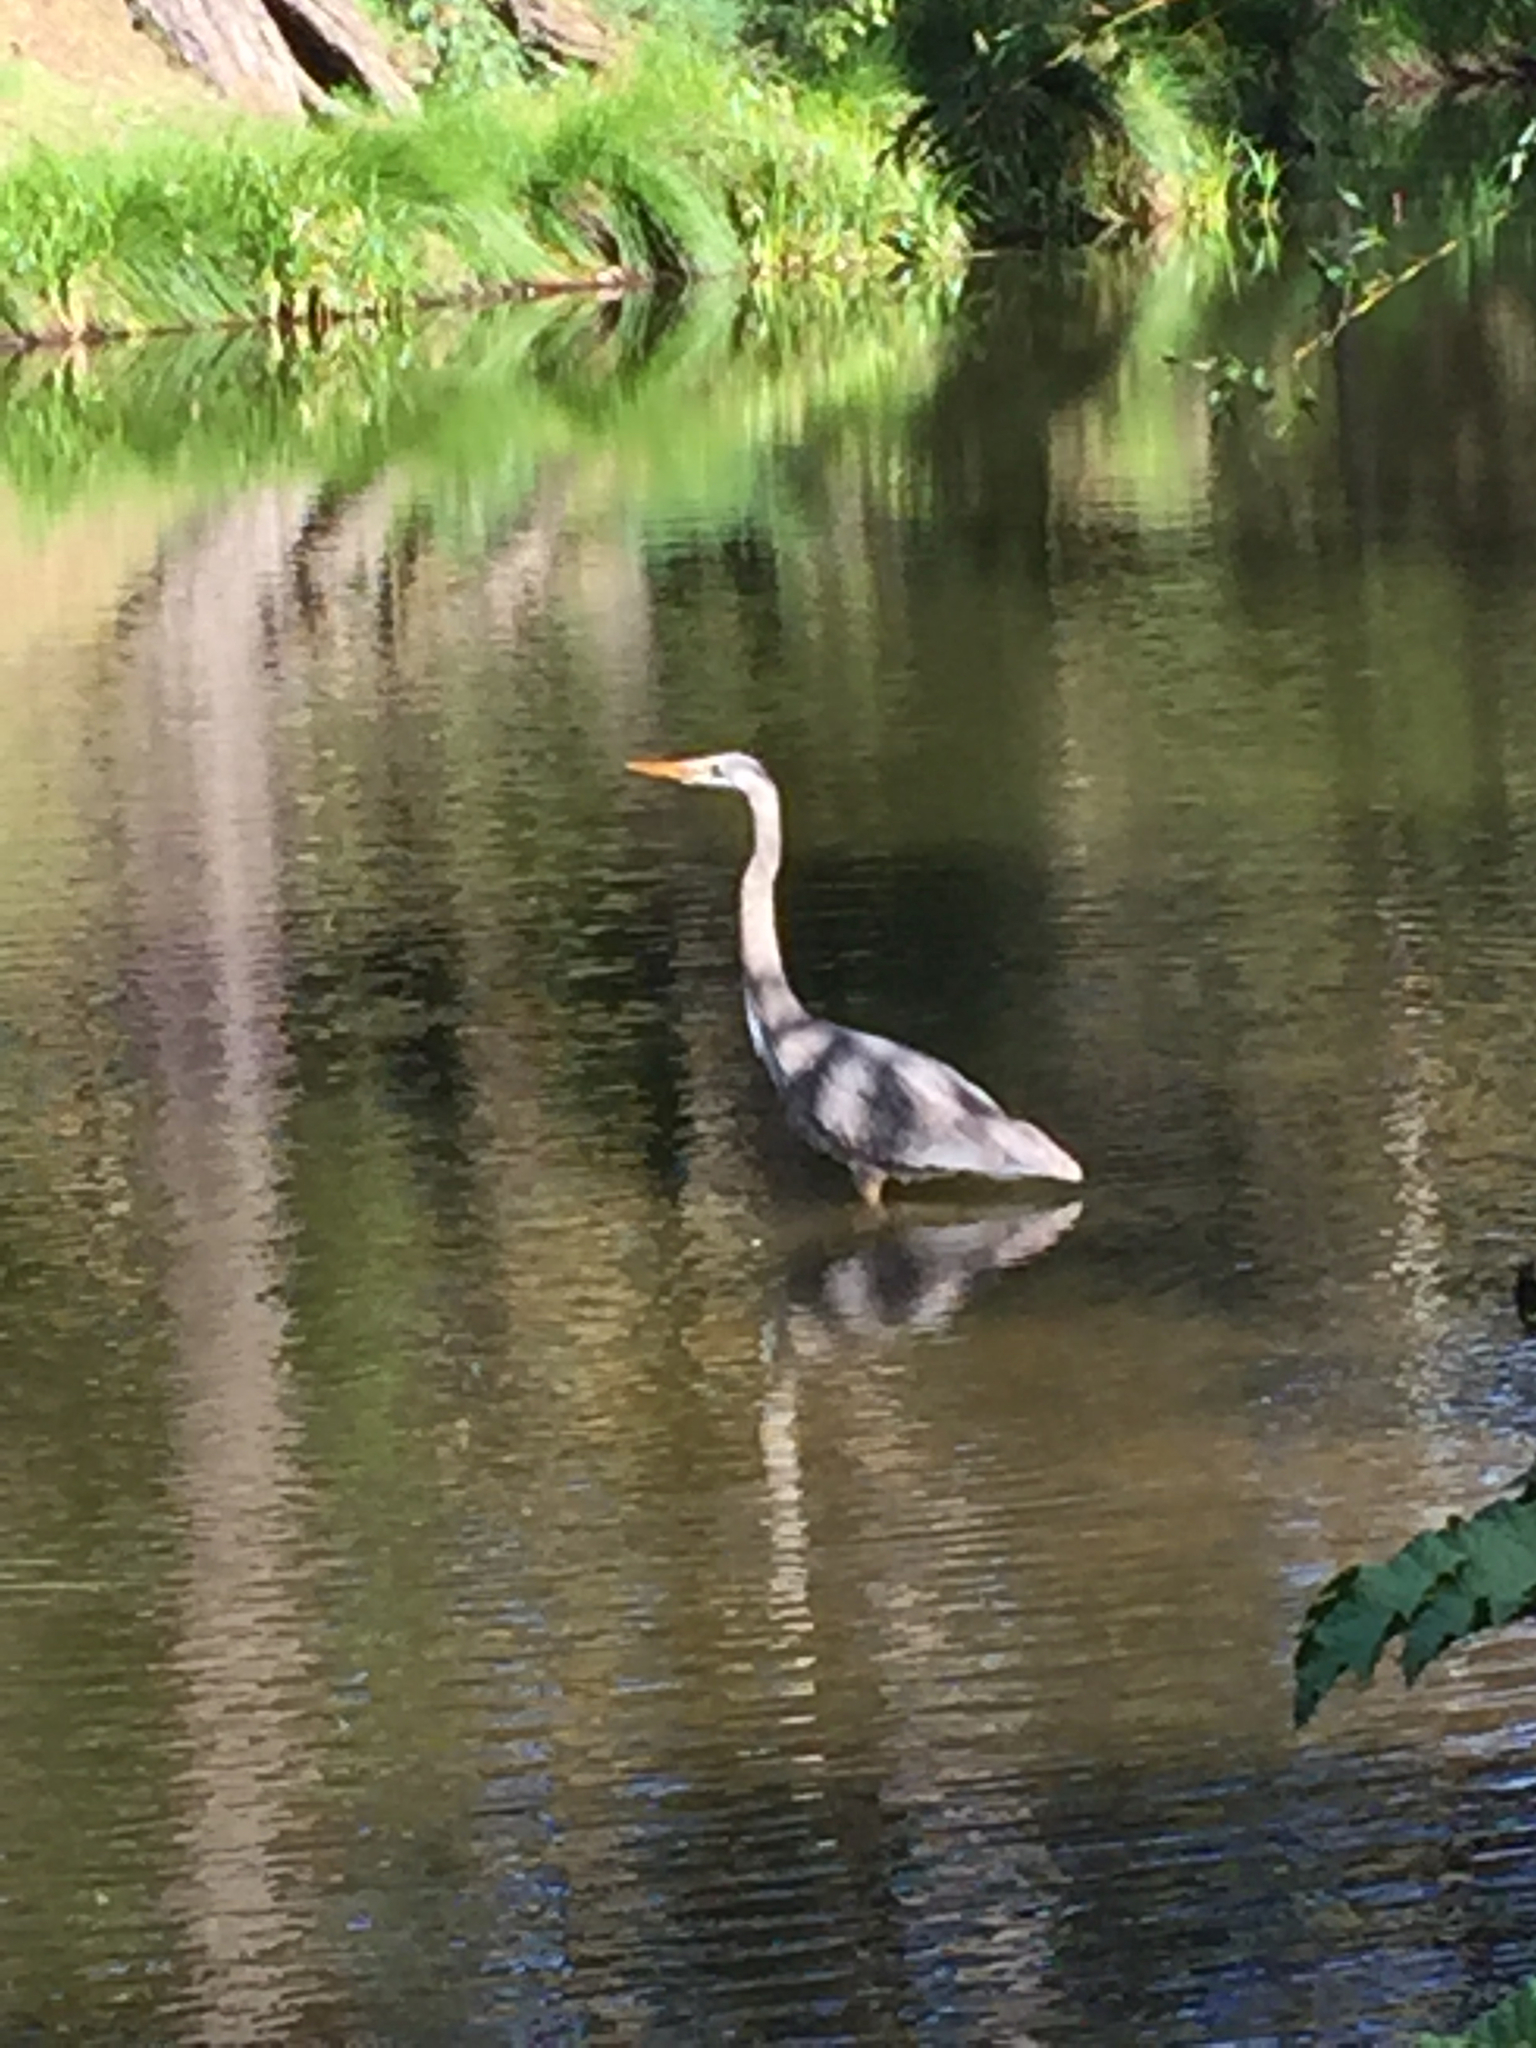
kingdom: Animalia
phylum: Chordata
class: Aves
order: Pelecaniformes
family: Ardeidae
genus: Ardea
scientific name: Ardea herodias
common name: Great blue heron
